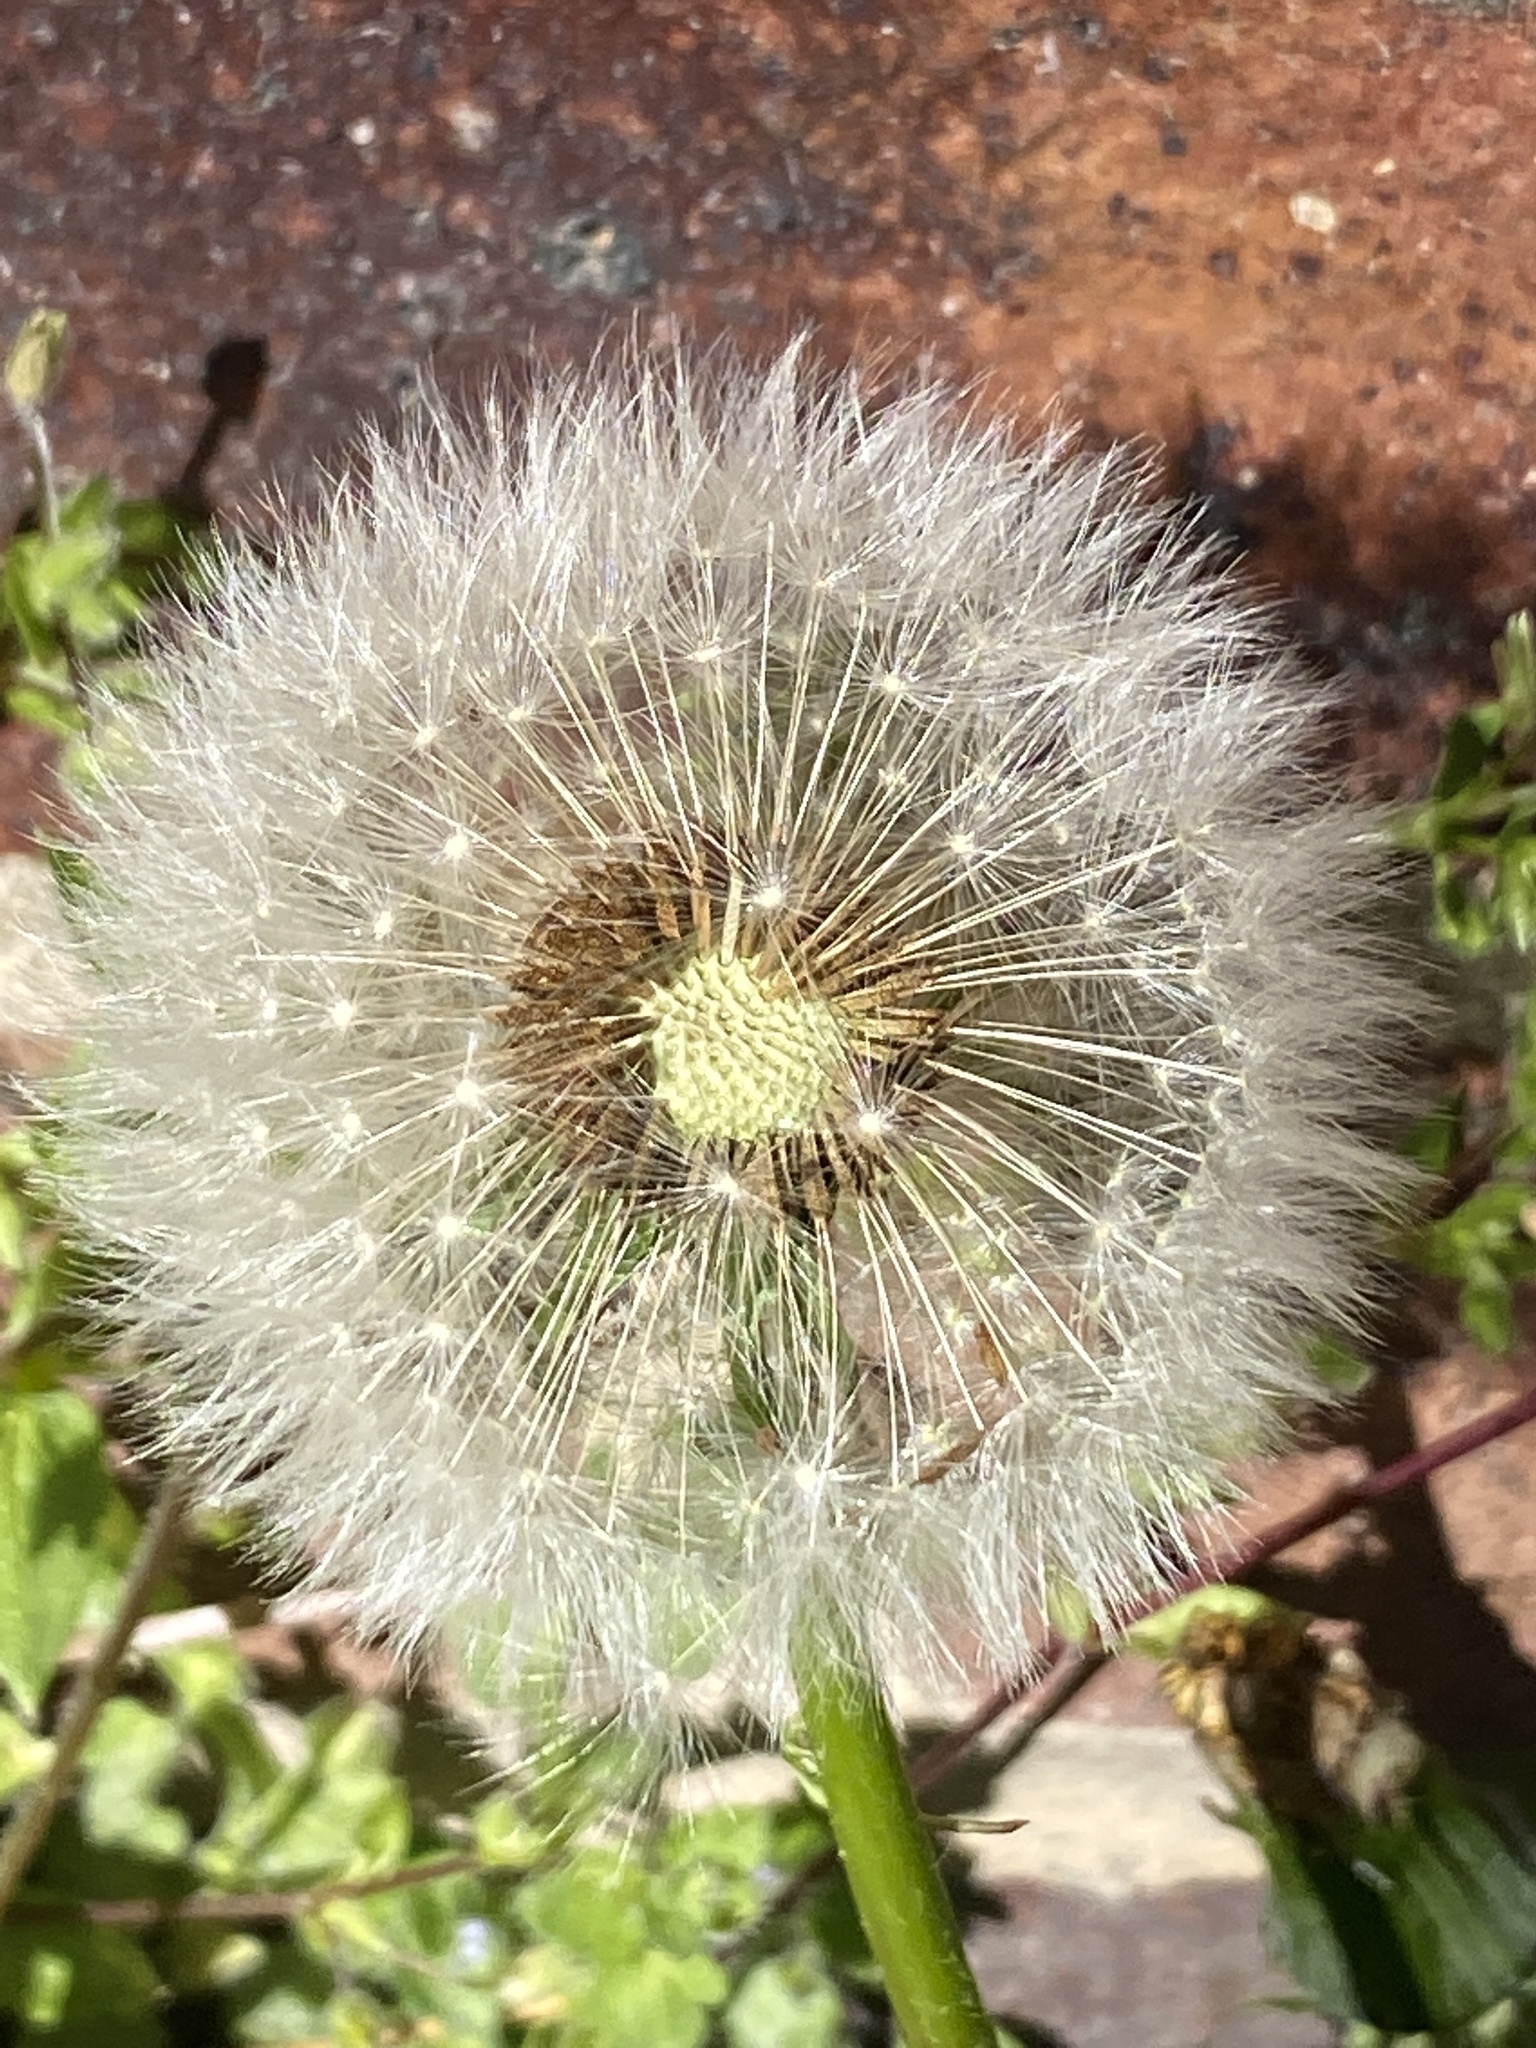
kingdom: Plantae
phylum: Tracheophyta
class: Magnoliopsida
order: Asterales
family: Asteraceae
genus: Taraxacum
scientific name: Taraxacum officinale
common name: Common dandelion
